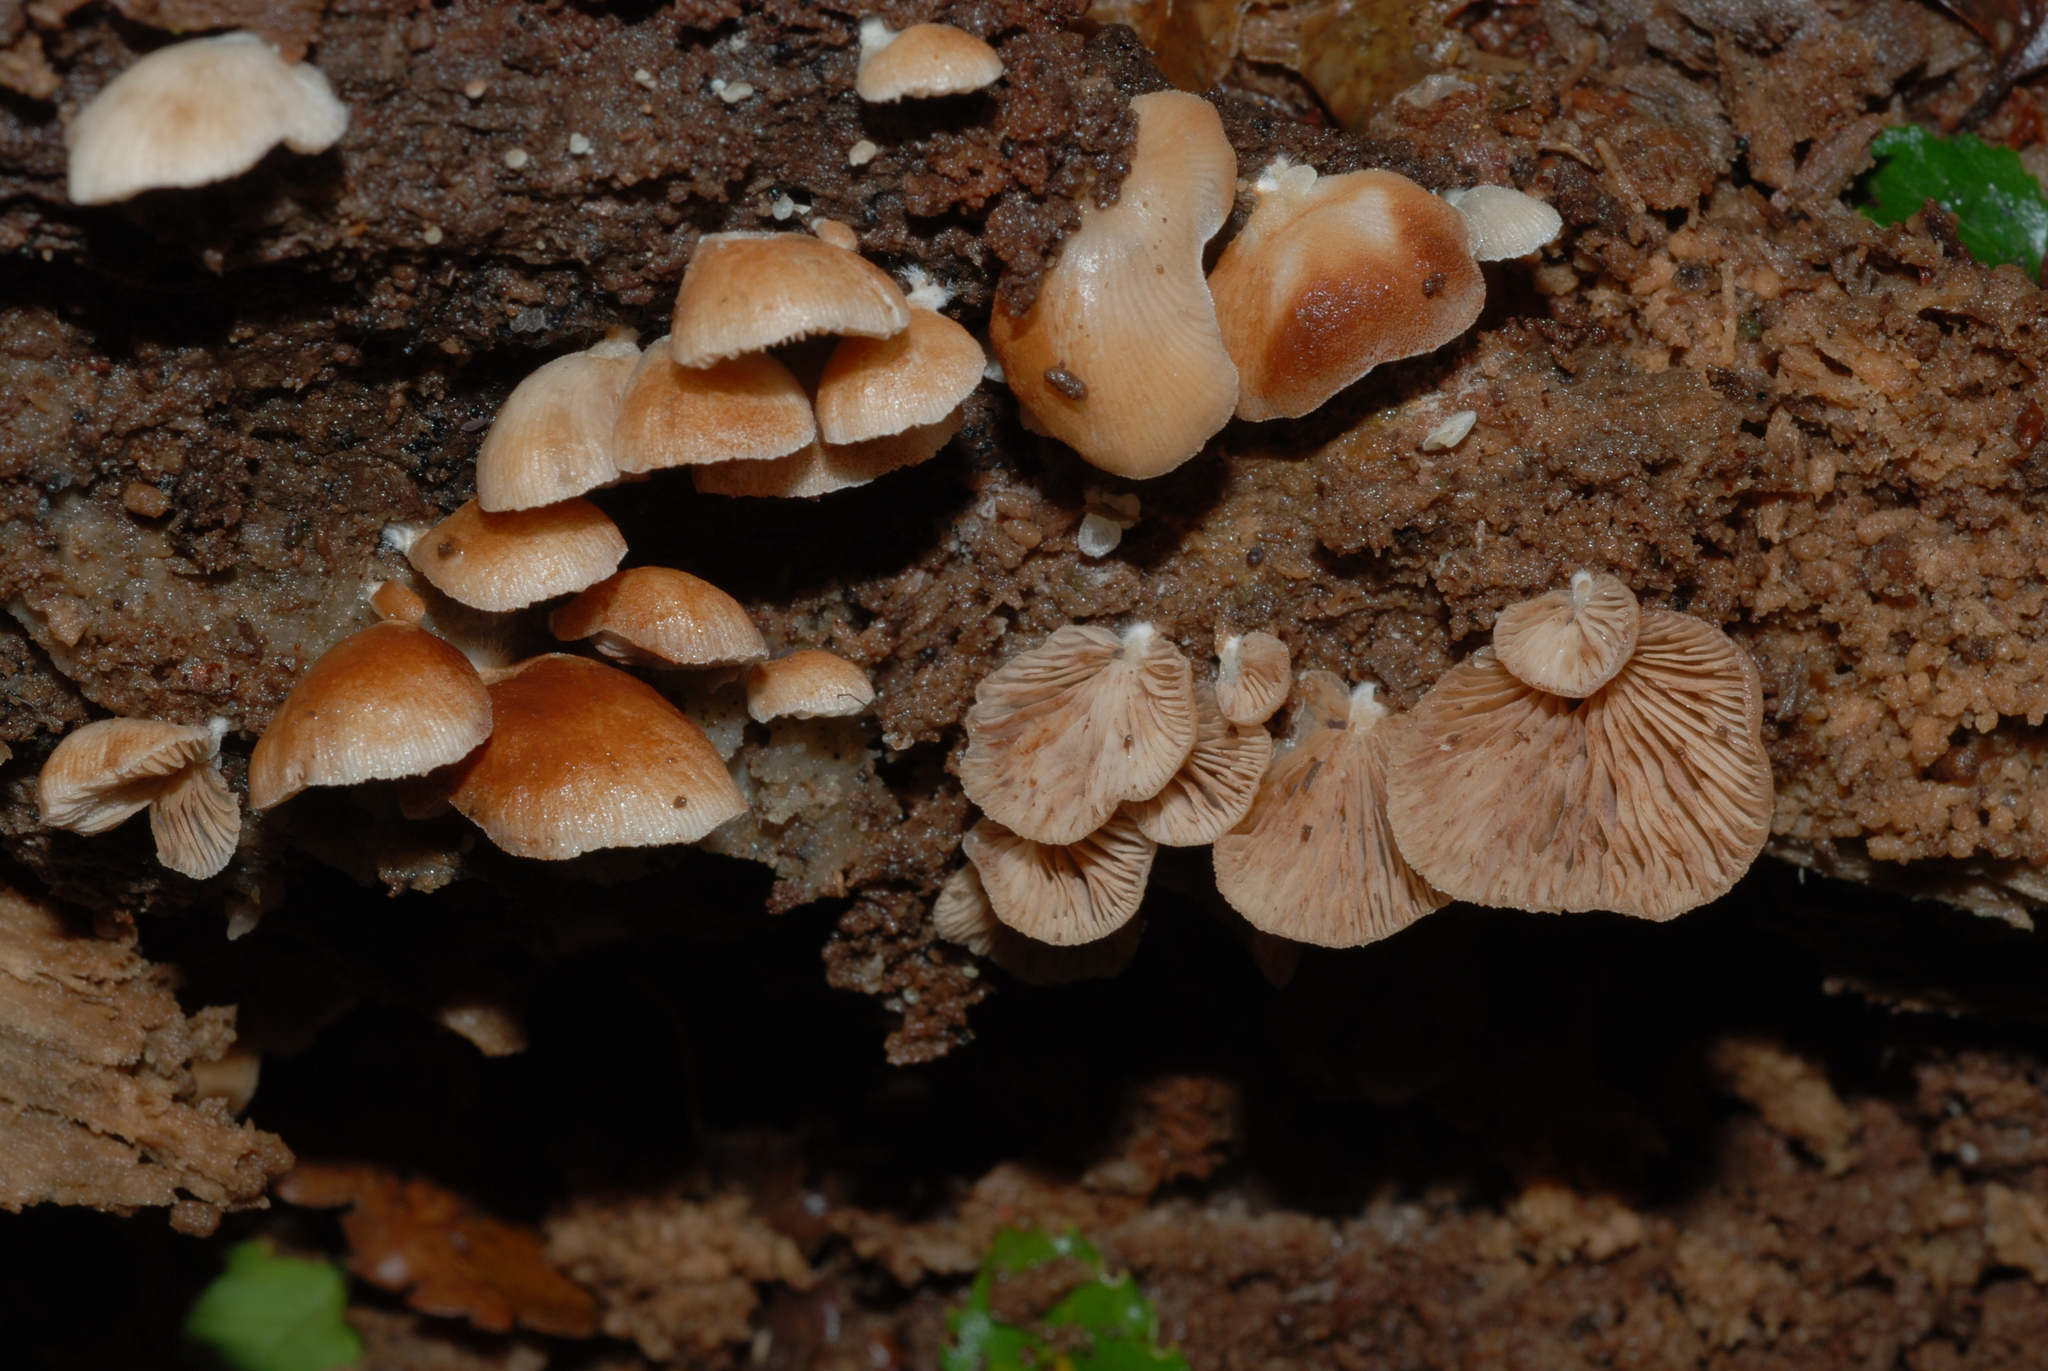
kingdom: Fungi
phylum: Basidiomycota
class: Agaricomycetes
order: Agaricales
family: Crepidotaceae
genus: Crepidotus
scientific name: Crepidotus lateralipes
